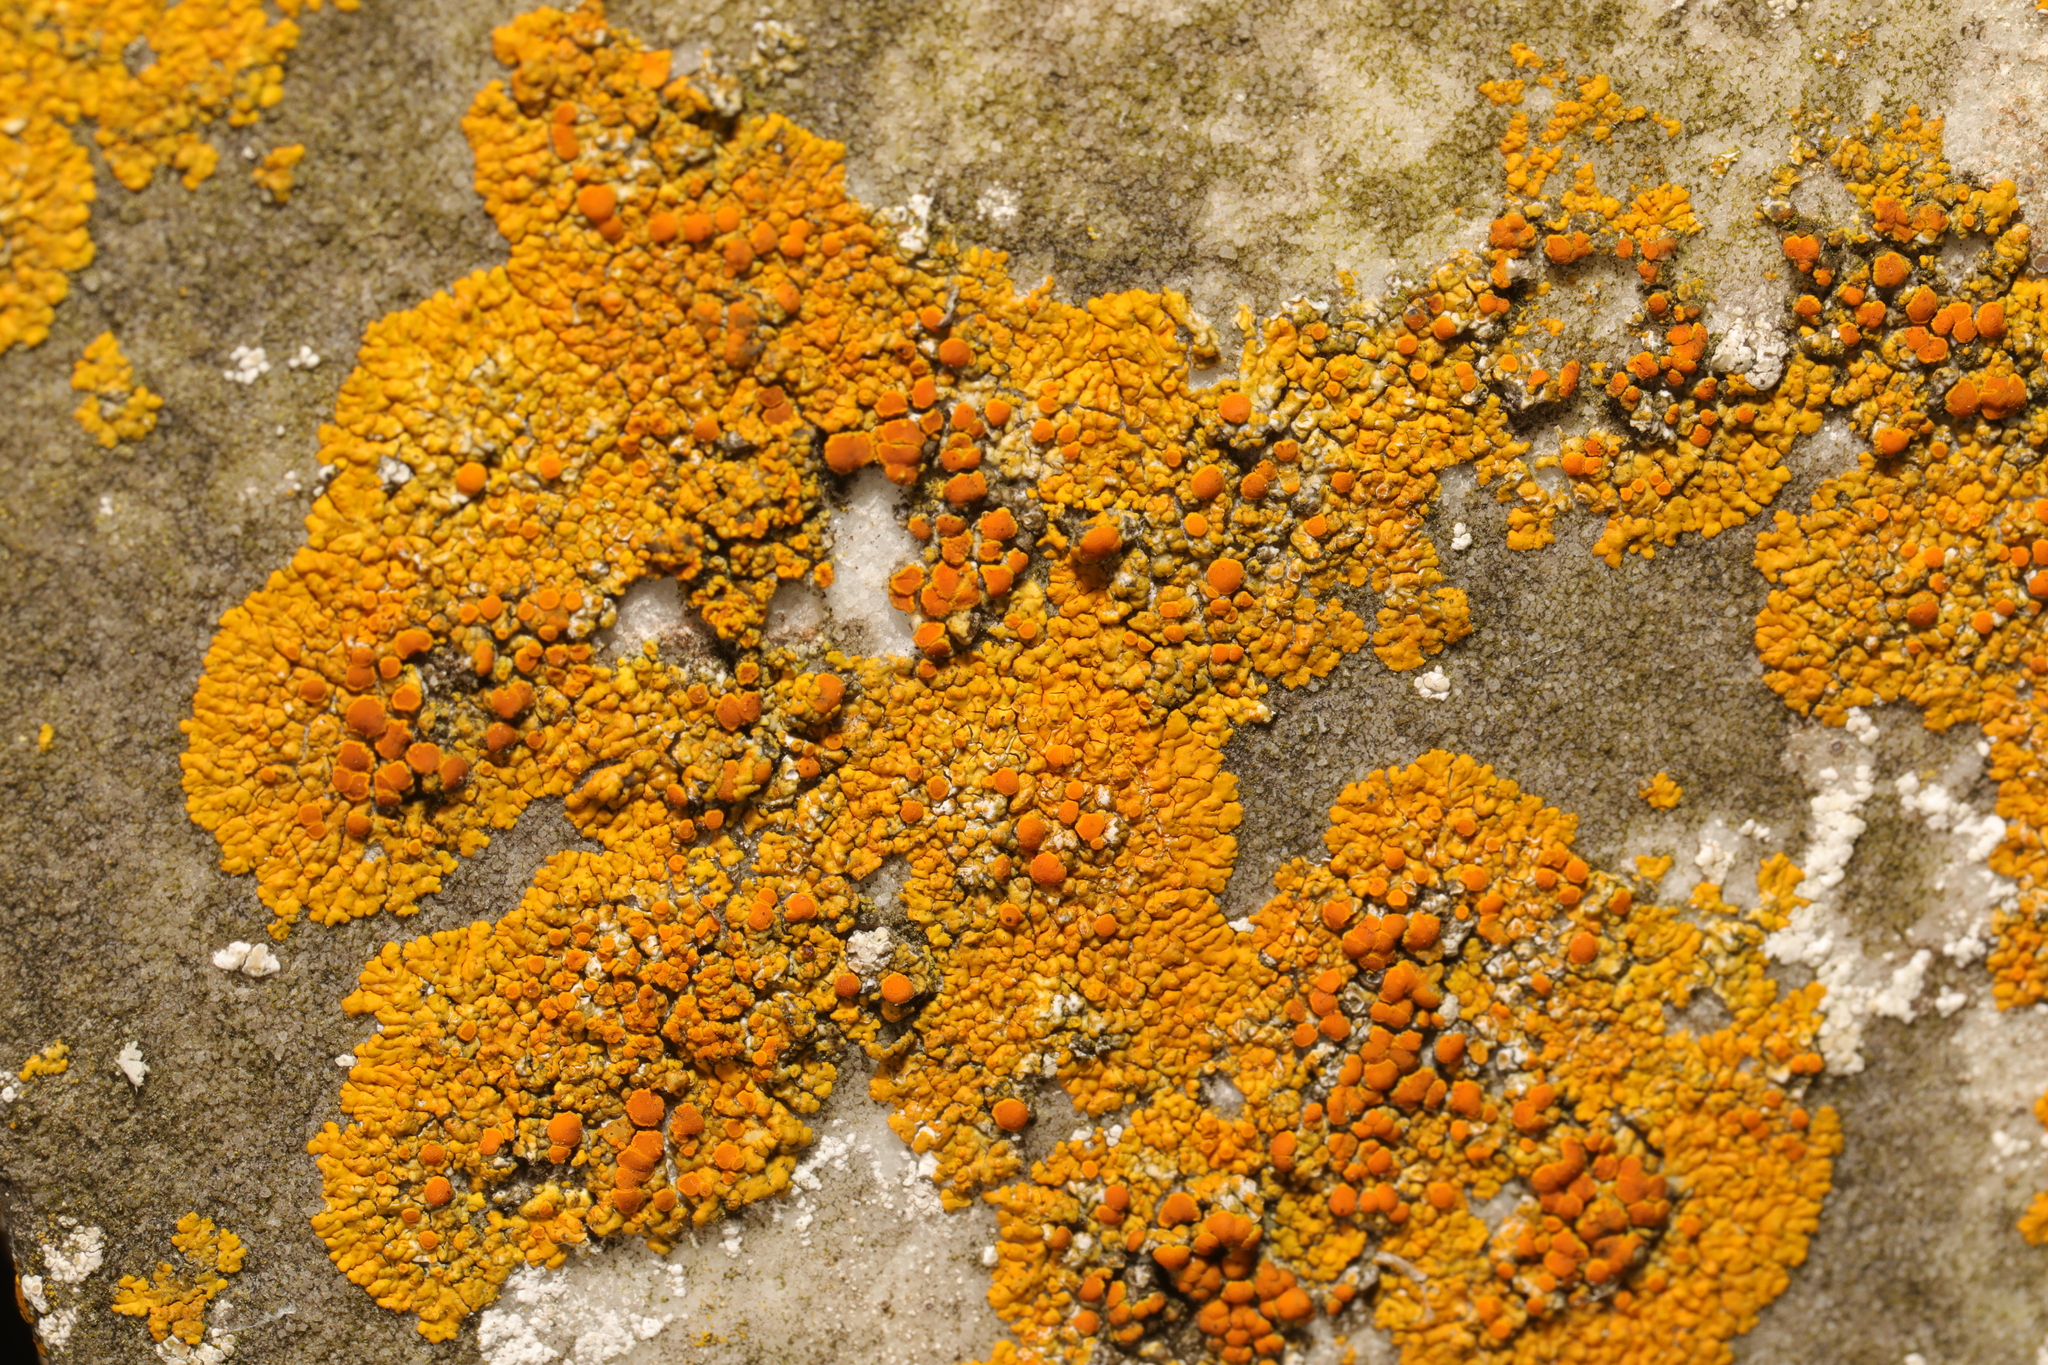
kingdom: Fungi
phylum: Ascomycota
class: Lecanoromycetes
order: Teloschistales
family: Teloschistaceae
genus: Variospora
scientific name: Variospora flavescens
